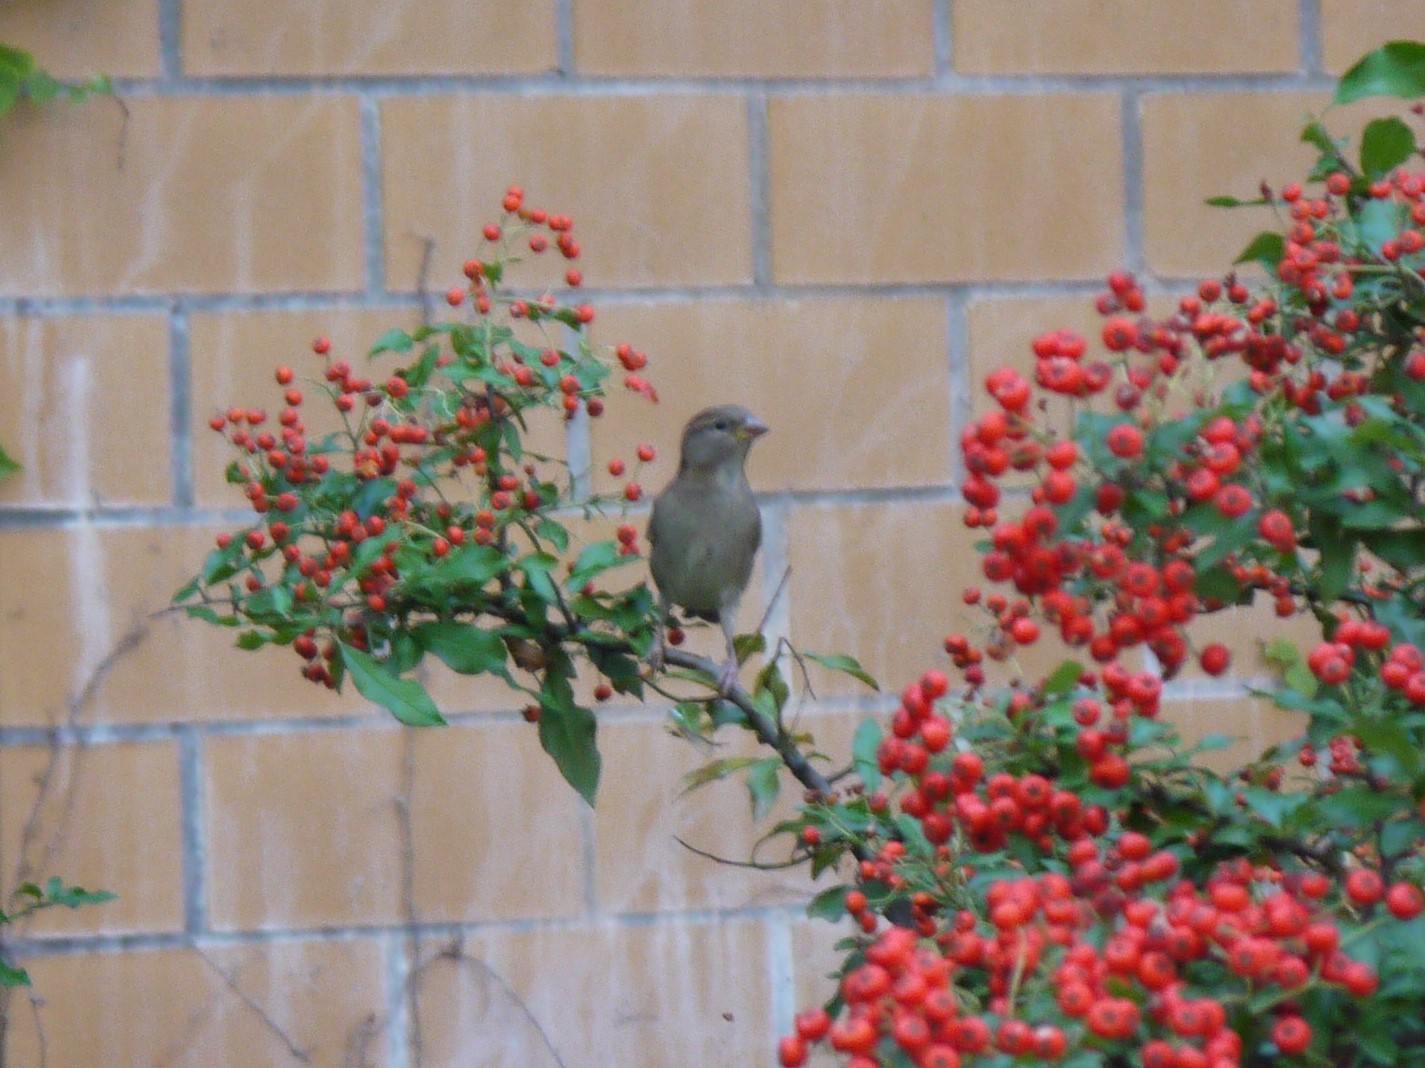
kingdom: Animalia
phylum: Chordata
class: Aves
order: Passeriformes
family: Passeridae
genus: Passer
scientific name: Passer domesticus
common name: House sparrow
